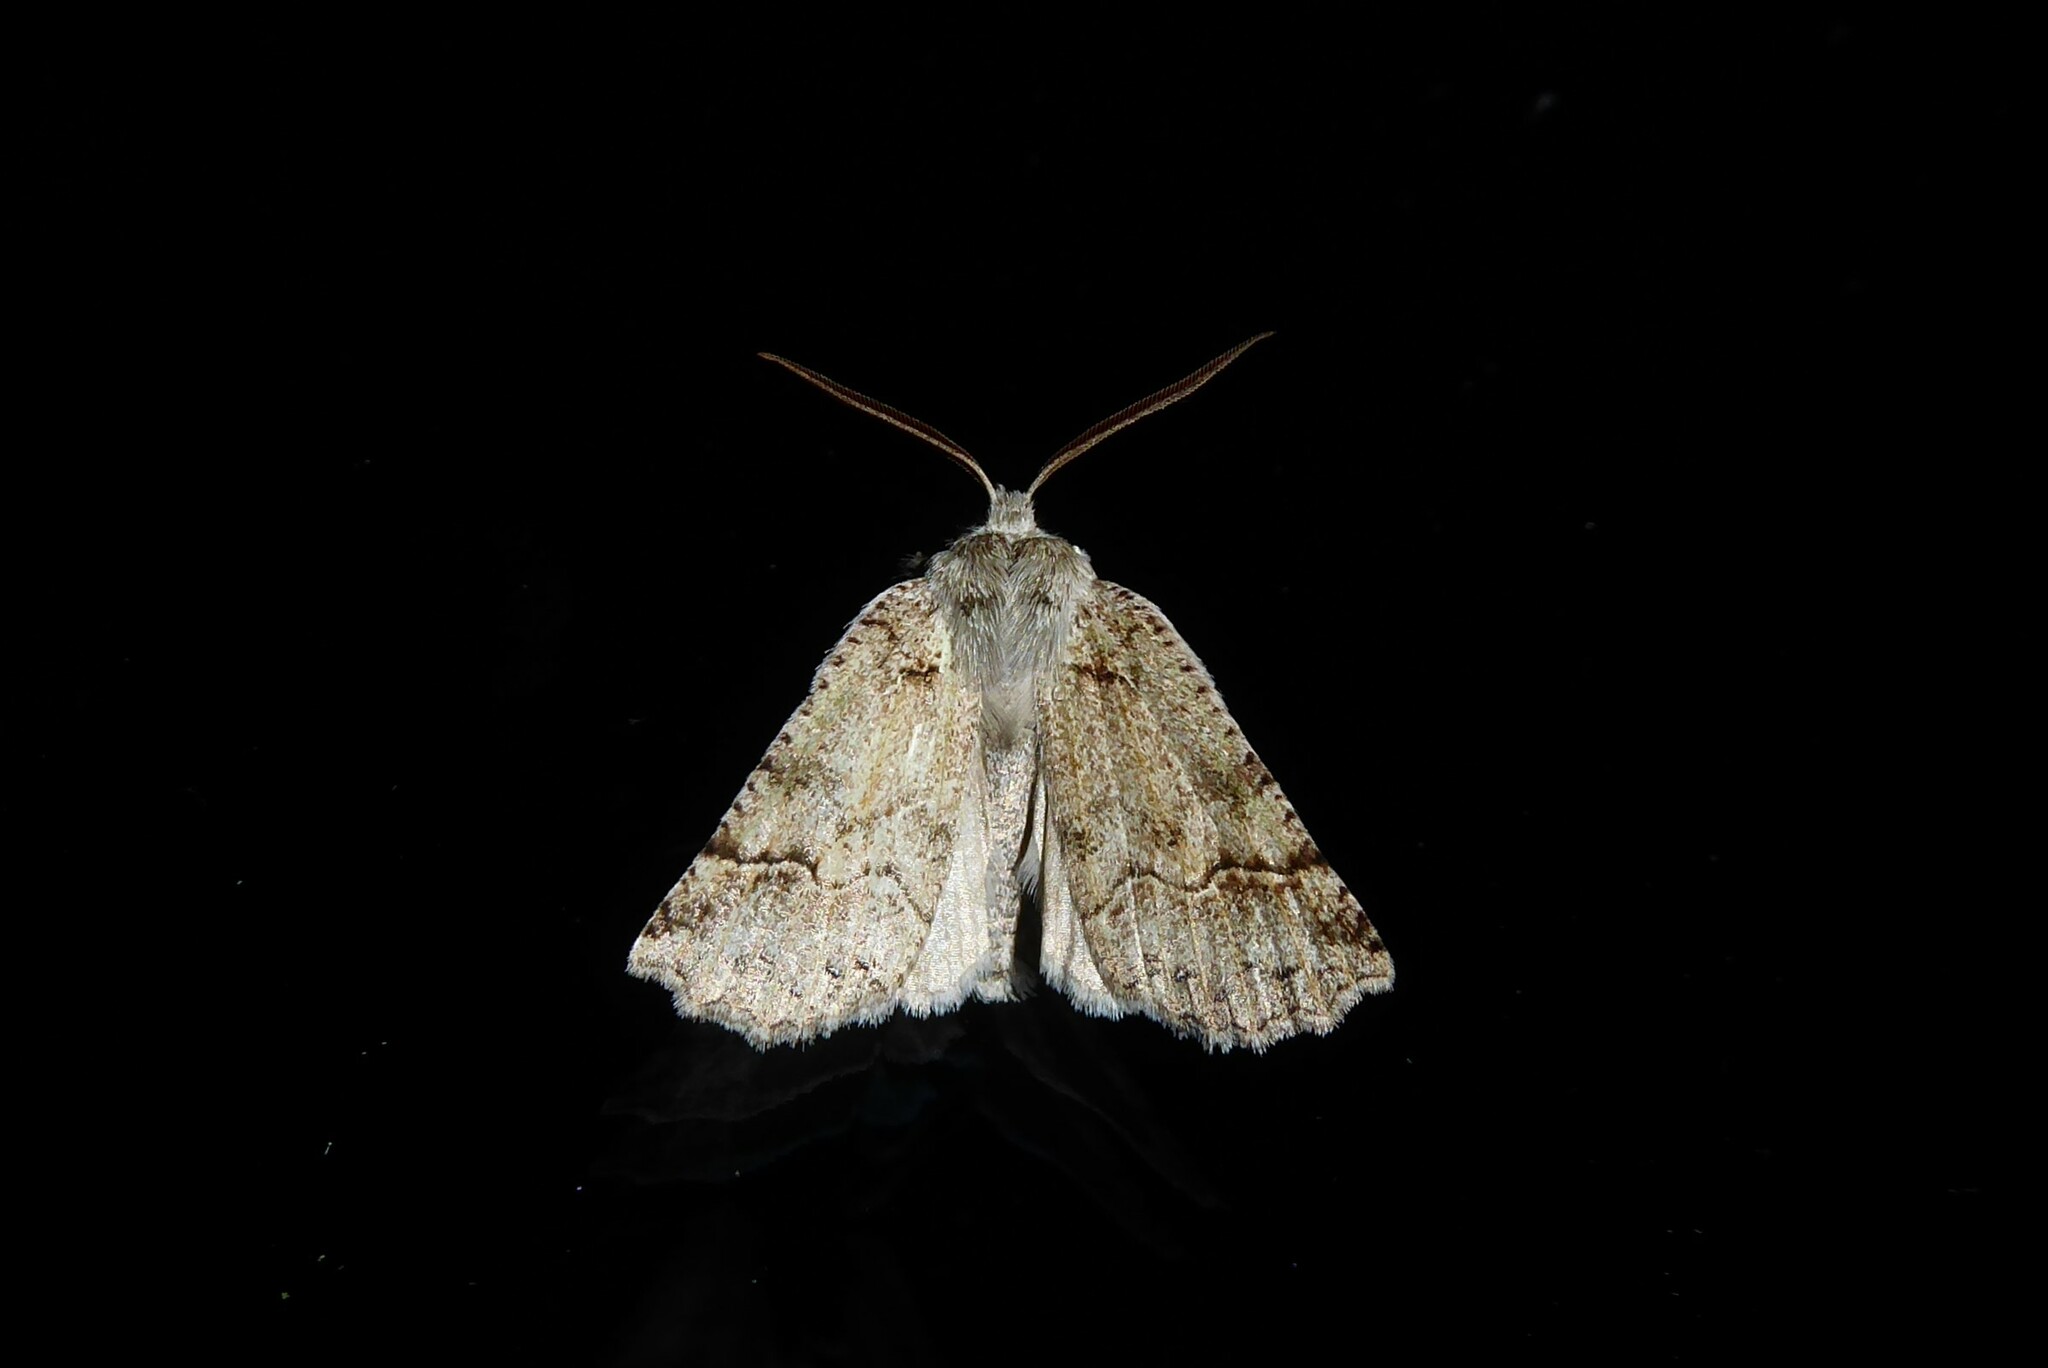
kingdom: Animalia
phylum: Arthropoda
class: Insecta
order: Lepidoptera
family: Geometridae
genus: Declana
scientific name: Declana floccosa
